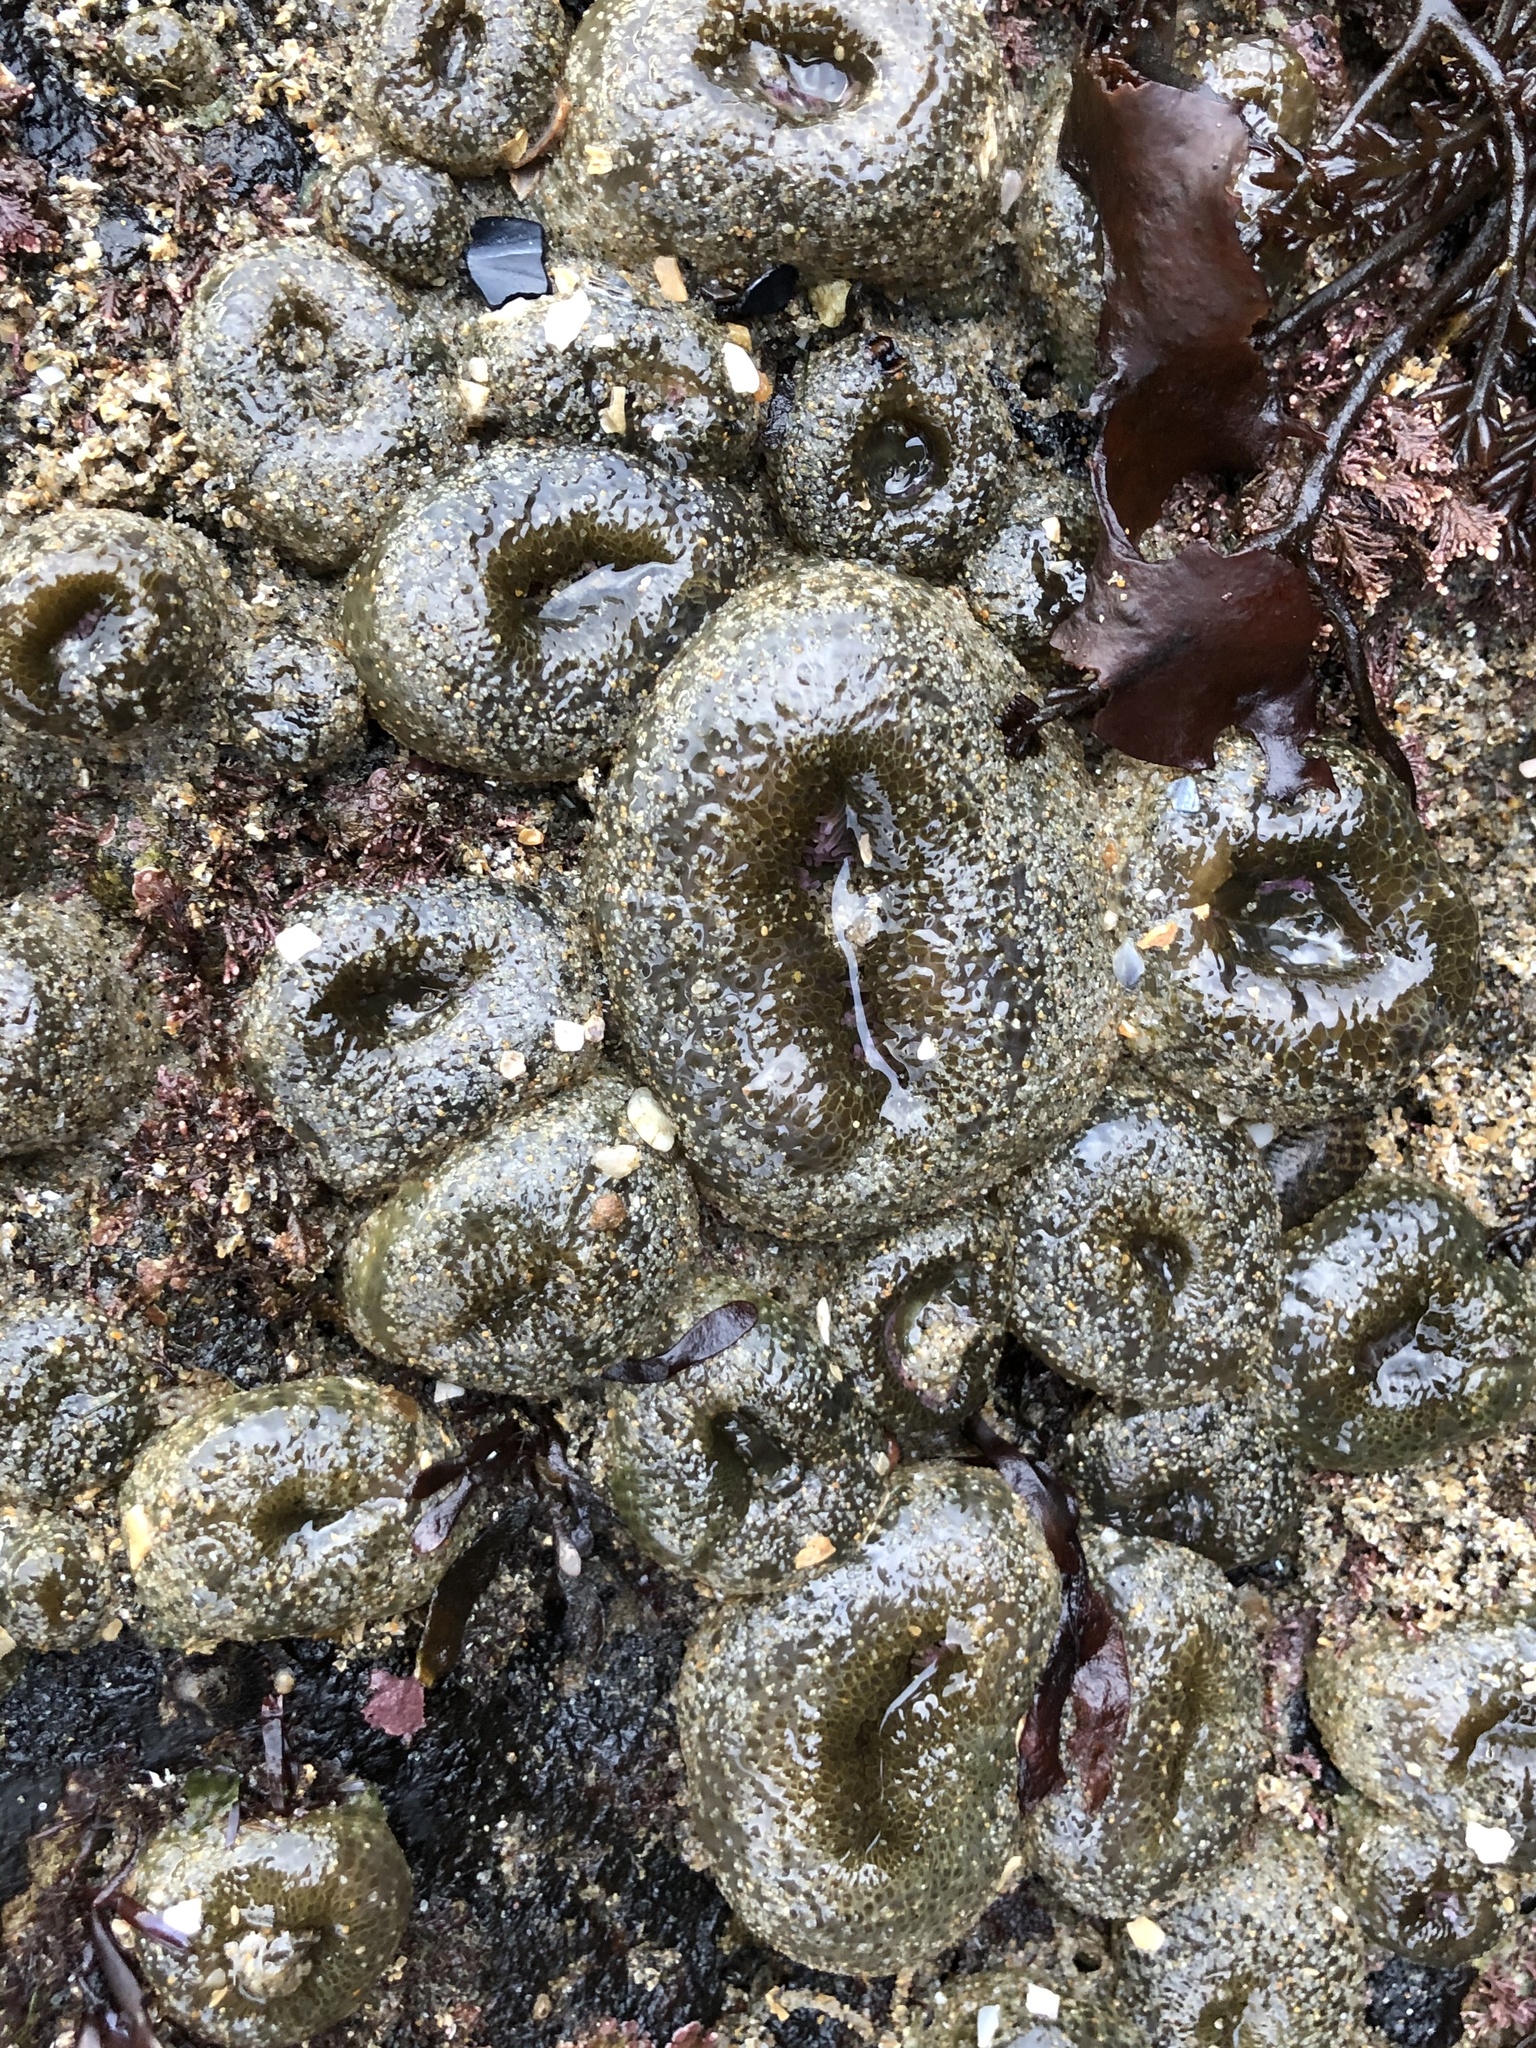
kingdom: Animalia
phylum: Cnidaria
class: Anthozoa
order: Actiniaria
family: Actiniidae
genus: Anthopleura
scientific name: Anthopleura elegantissima
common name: Clonal anemone
